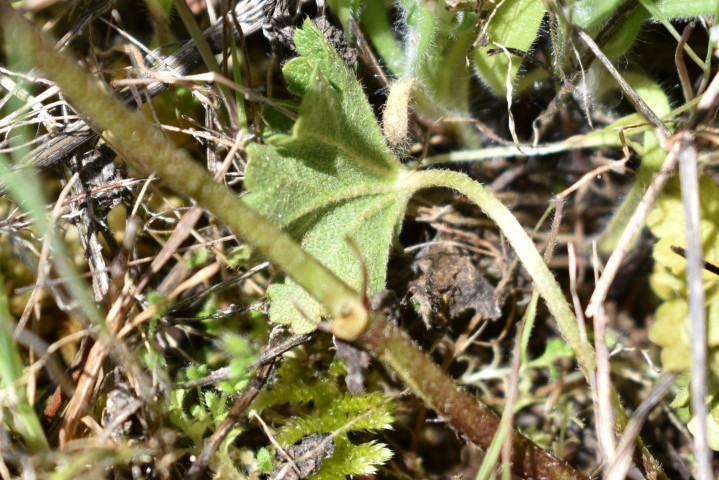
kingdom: Plantae
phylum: Tracheophyta
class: Magnoliopsida
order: Malvales
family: Malvaceae
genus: Sidalcea
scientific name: Sidalcea asprella
